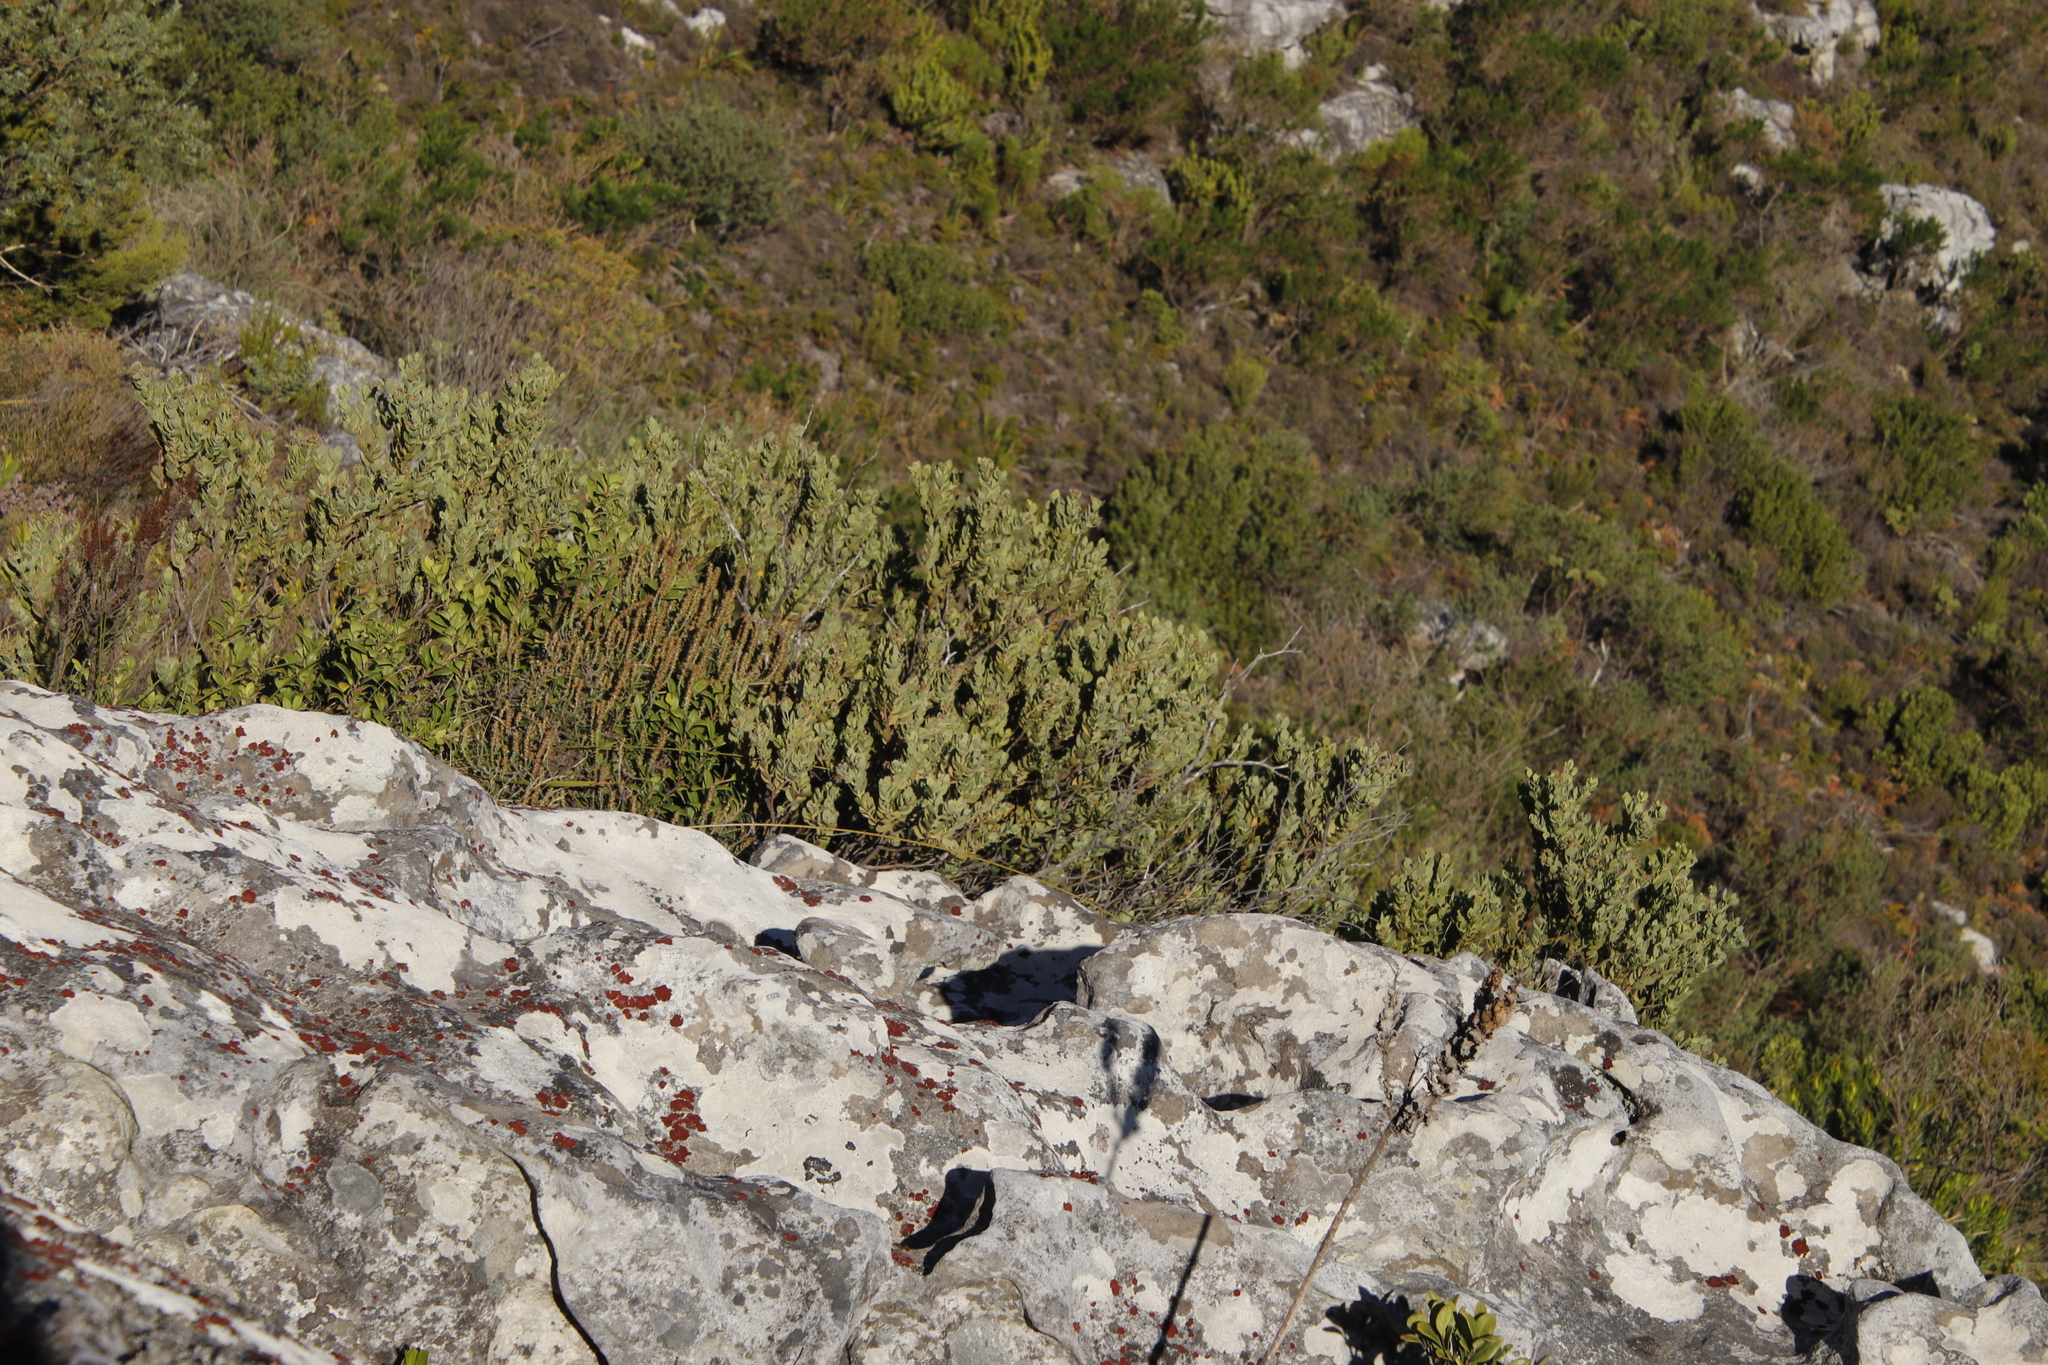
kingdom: Plantae
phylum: Tracheophyta
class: Magnoliopsida
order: Santalales
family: Santalaceae
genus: Osyris
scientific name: Osyris compressa
